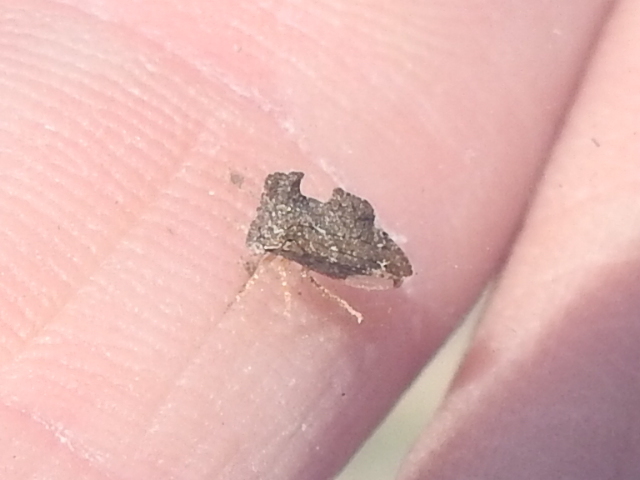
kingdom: Animalia
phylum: Arthropoda
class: Insecta
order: Hemiptera
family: Membracidae
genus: Entylia
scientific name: Entylia carinata
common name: Keeled treehopper
